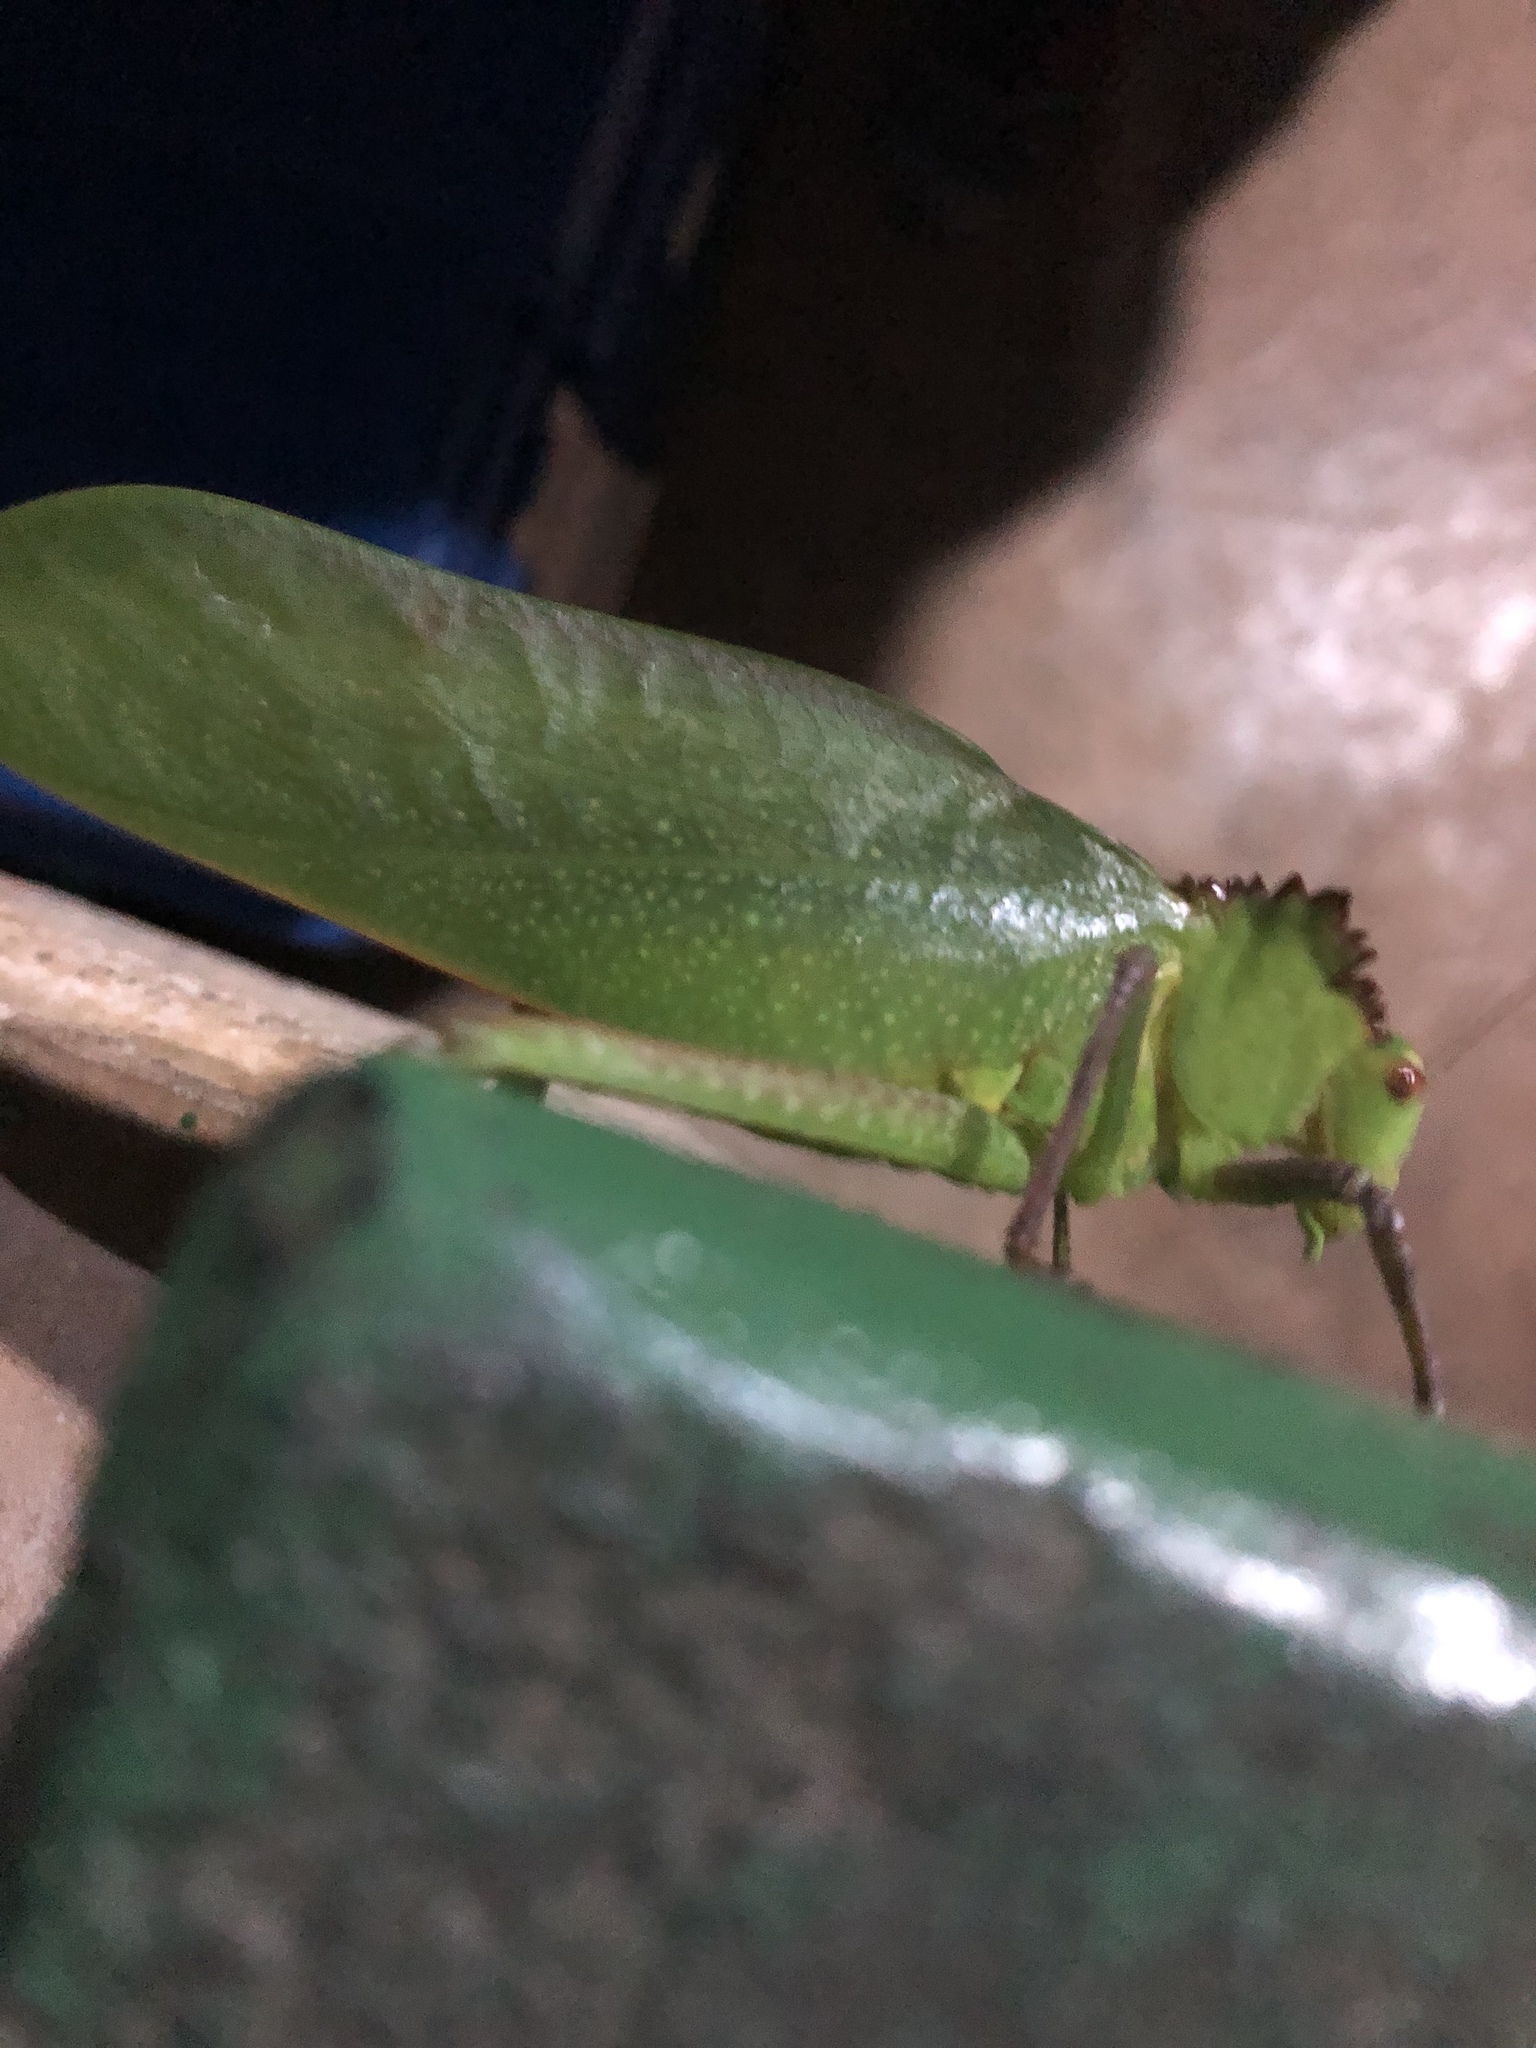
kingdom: Animalia
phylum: Arthropoda
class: Insecta
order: Orthoptera
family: Tettigoniidae
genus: Steirodon
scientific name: Steirodon careovirgulatum
